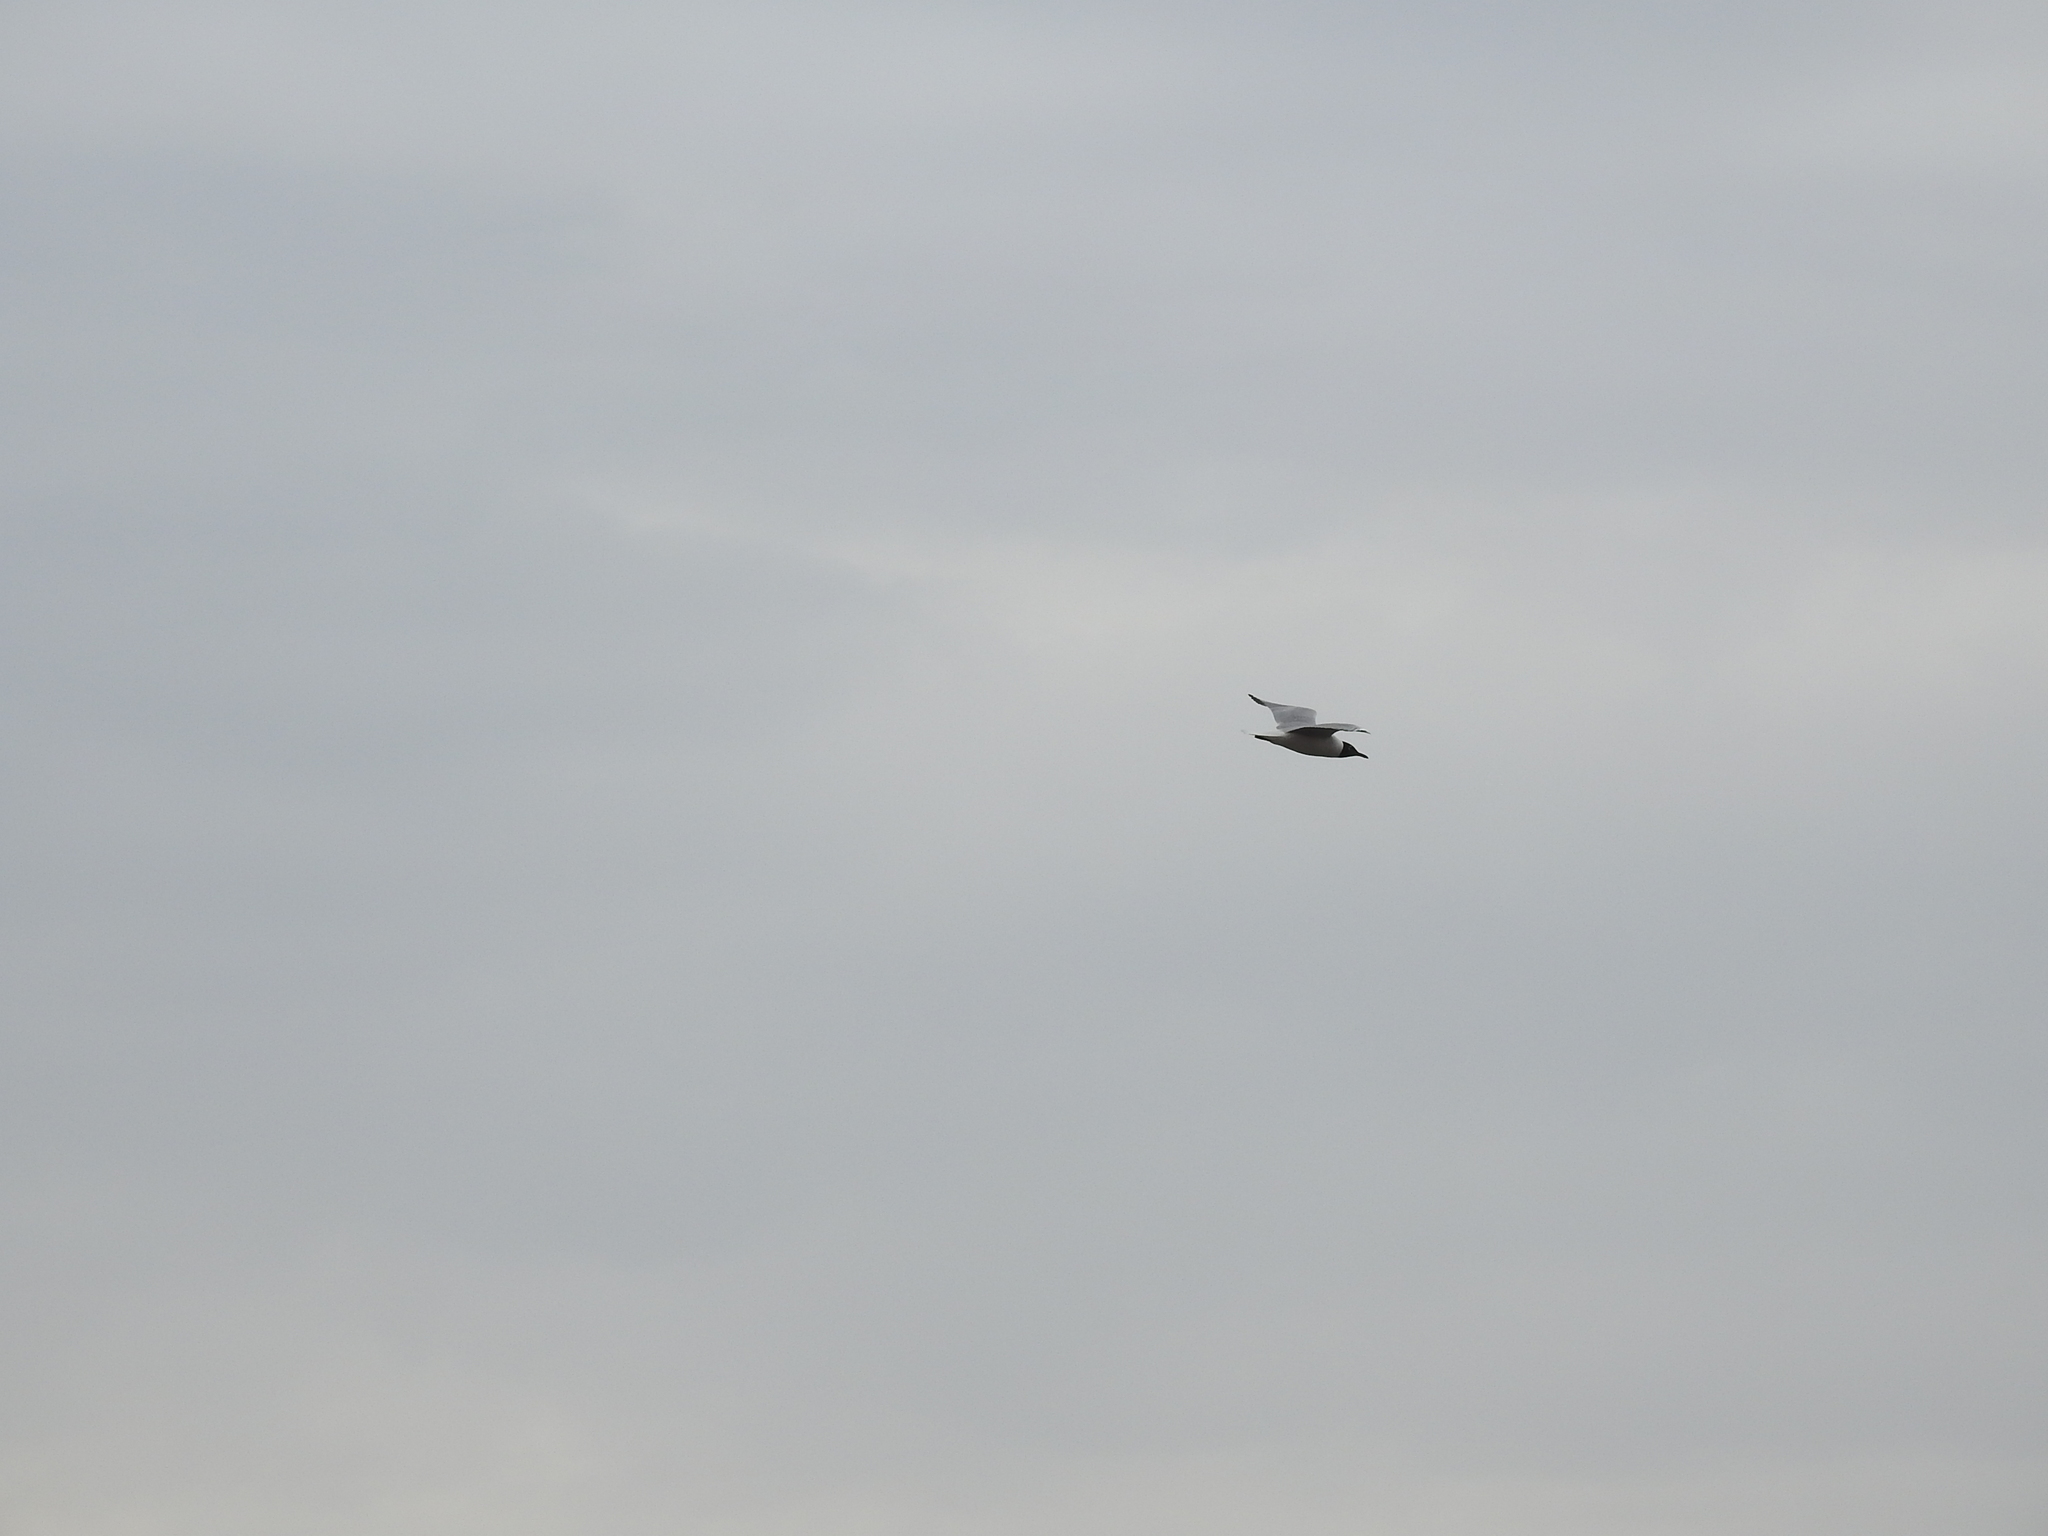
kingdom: Animalia
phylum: Chordata
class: Aves
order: Charadriiformes
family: Laridae
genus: Chroicocephalus
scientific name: Chroicocephalus ridibundus
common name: Black-headed gull
